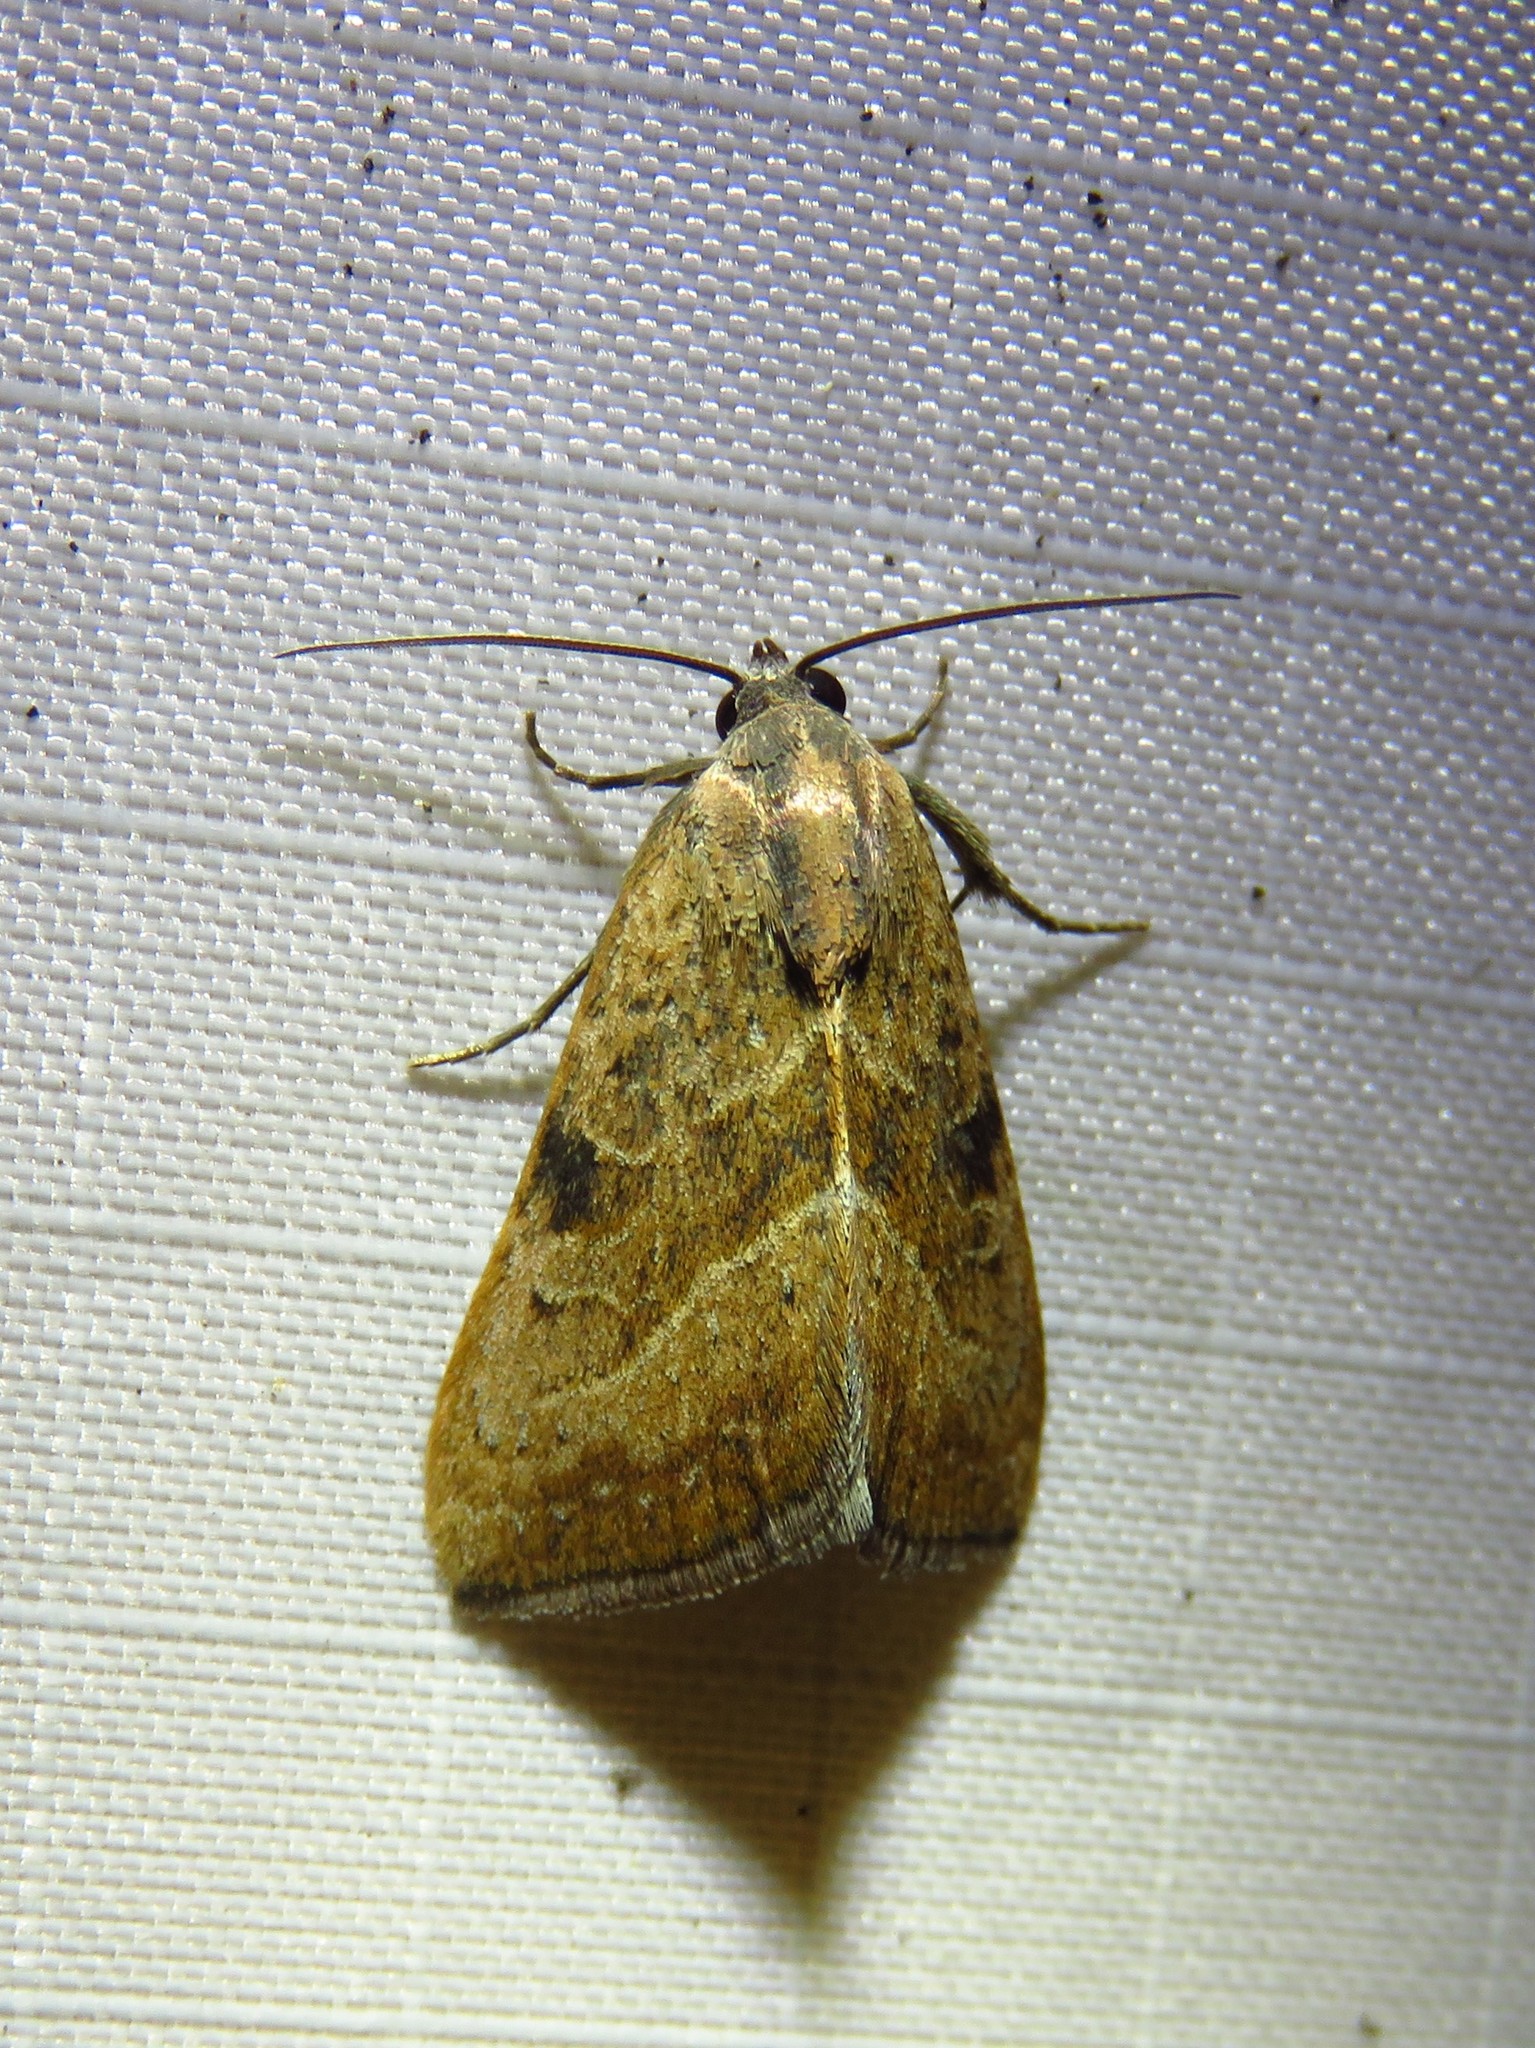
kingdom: Animalia
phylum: Arthropoda
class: Insecta
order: Lepidoptera
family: Noctuidae
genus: Galgula
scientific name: Galgula partita
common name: Wedgeling
